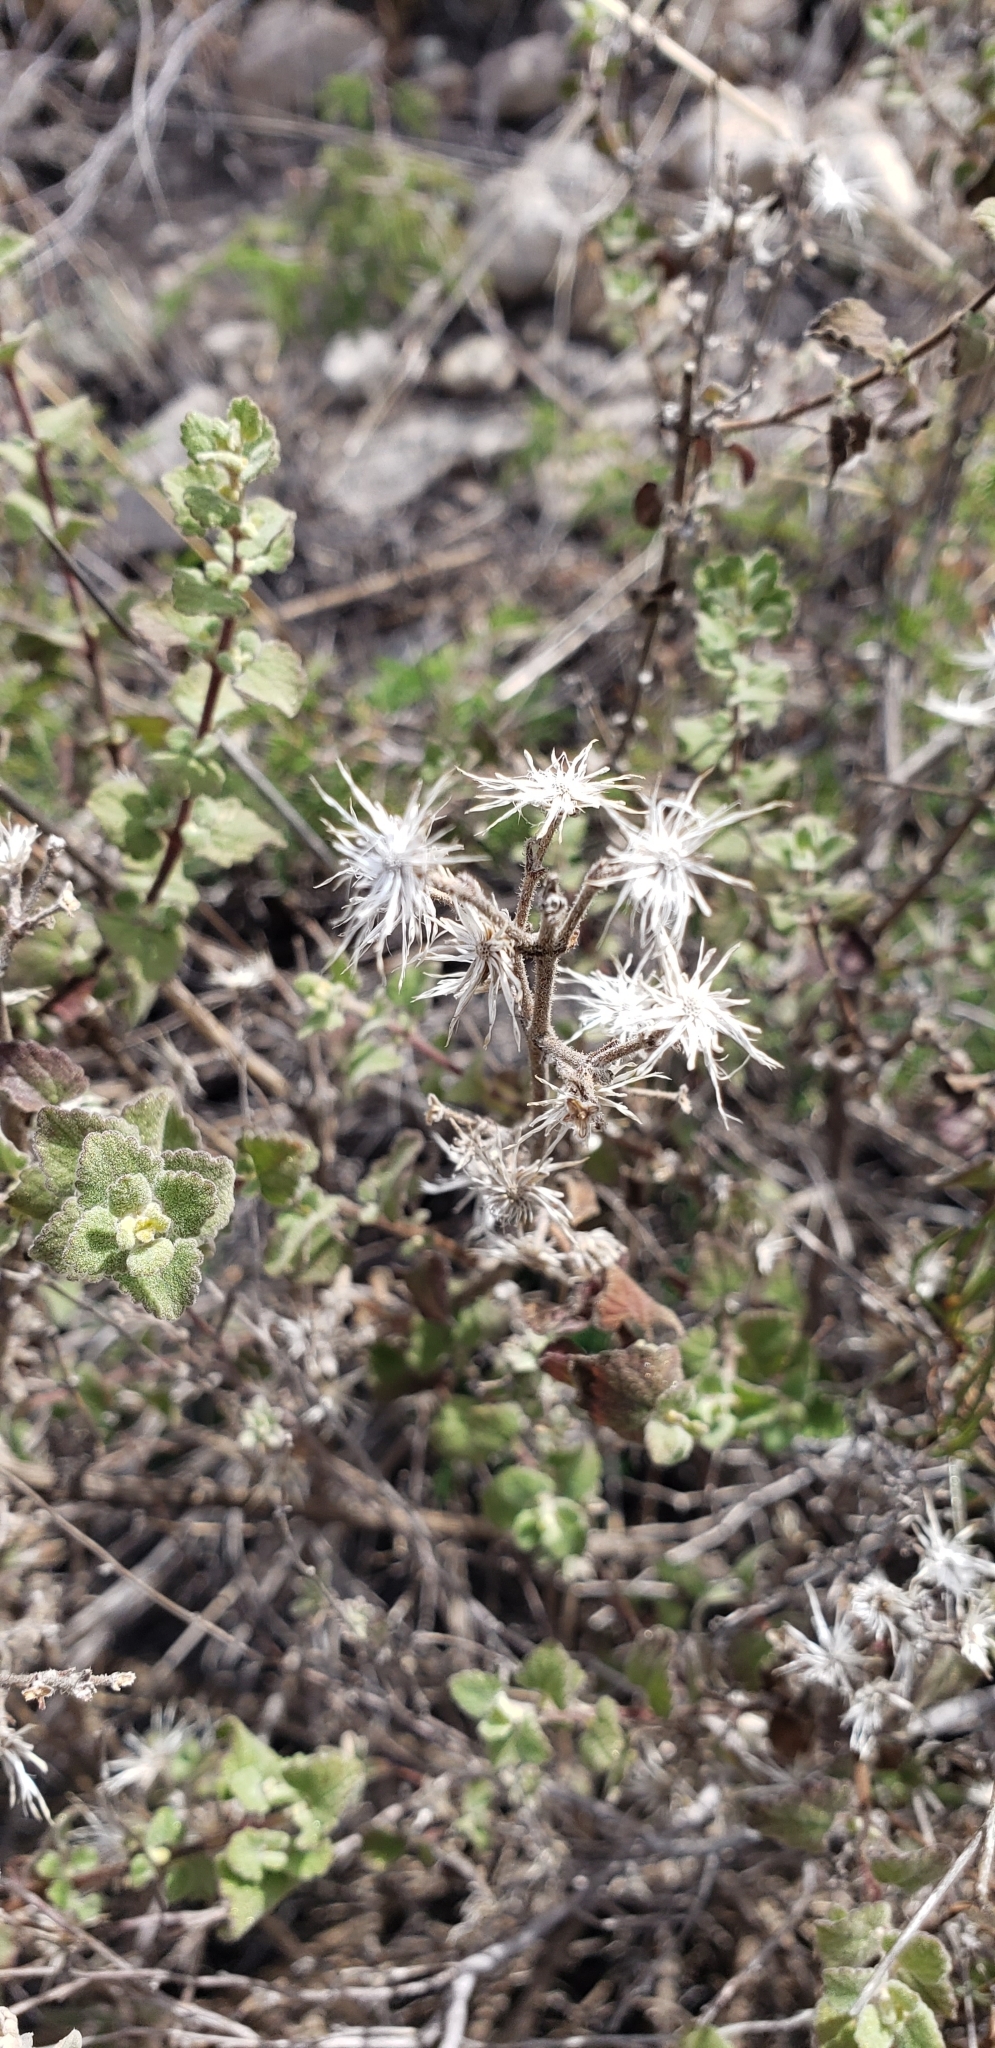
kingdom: Plantae
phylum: Tracheophyta
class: Magnoliopsida
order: Asterales
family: Asteraceae
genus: Brickellia
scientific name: Brickellia veronicifolia
